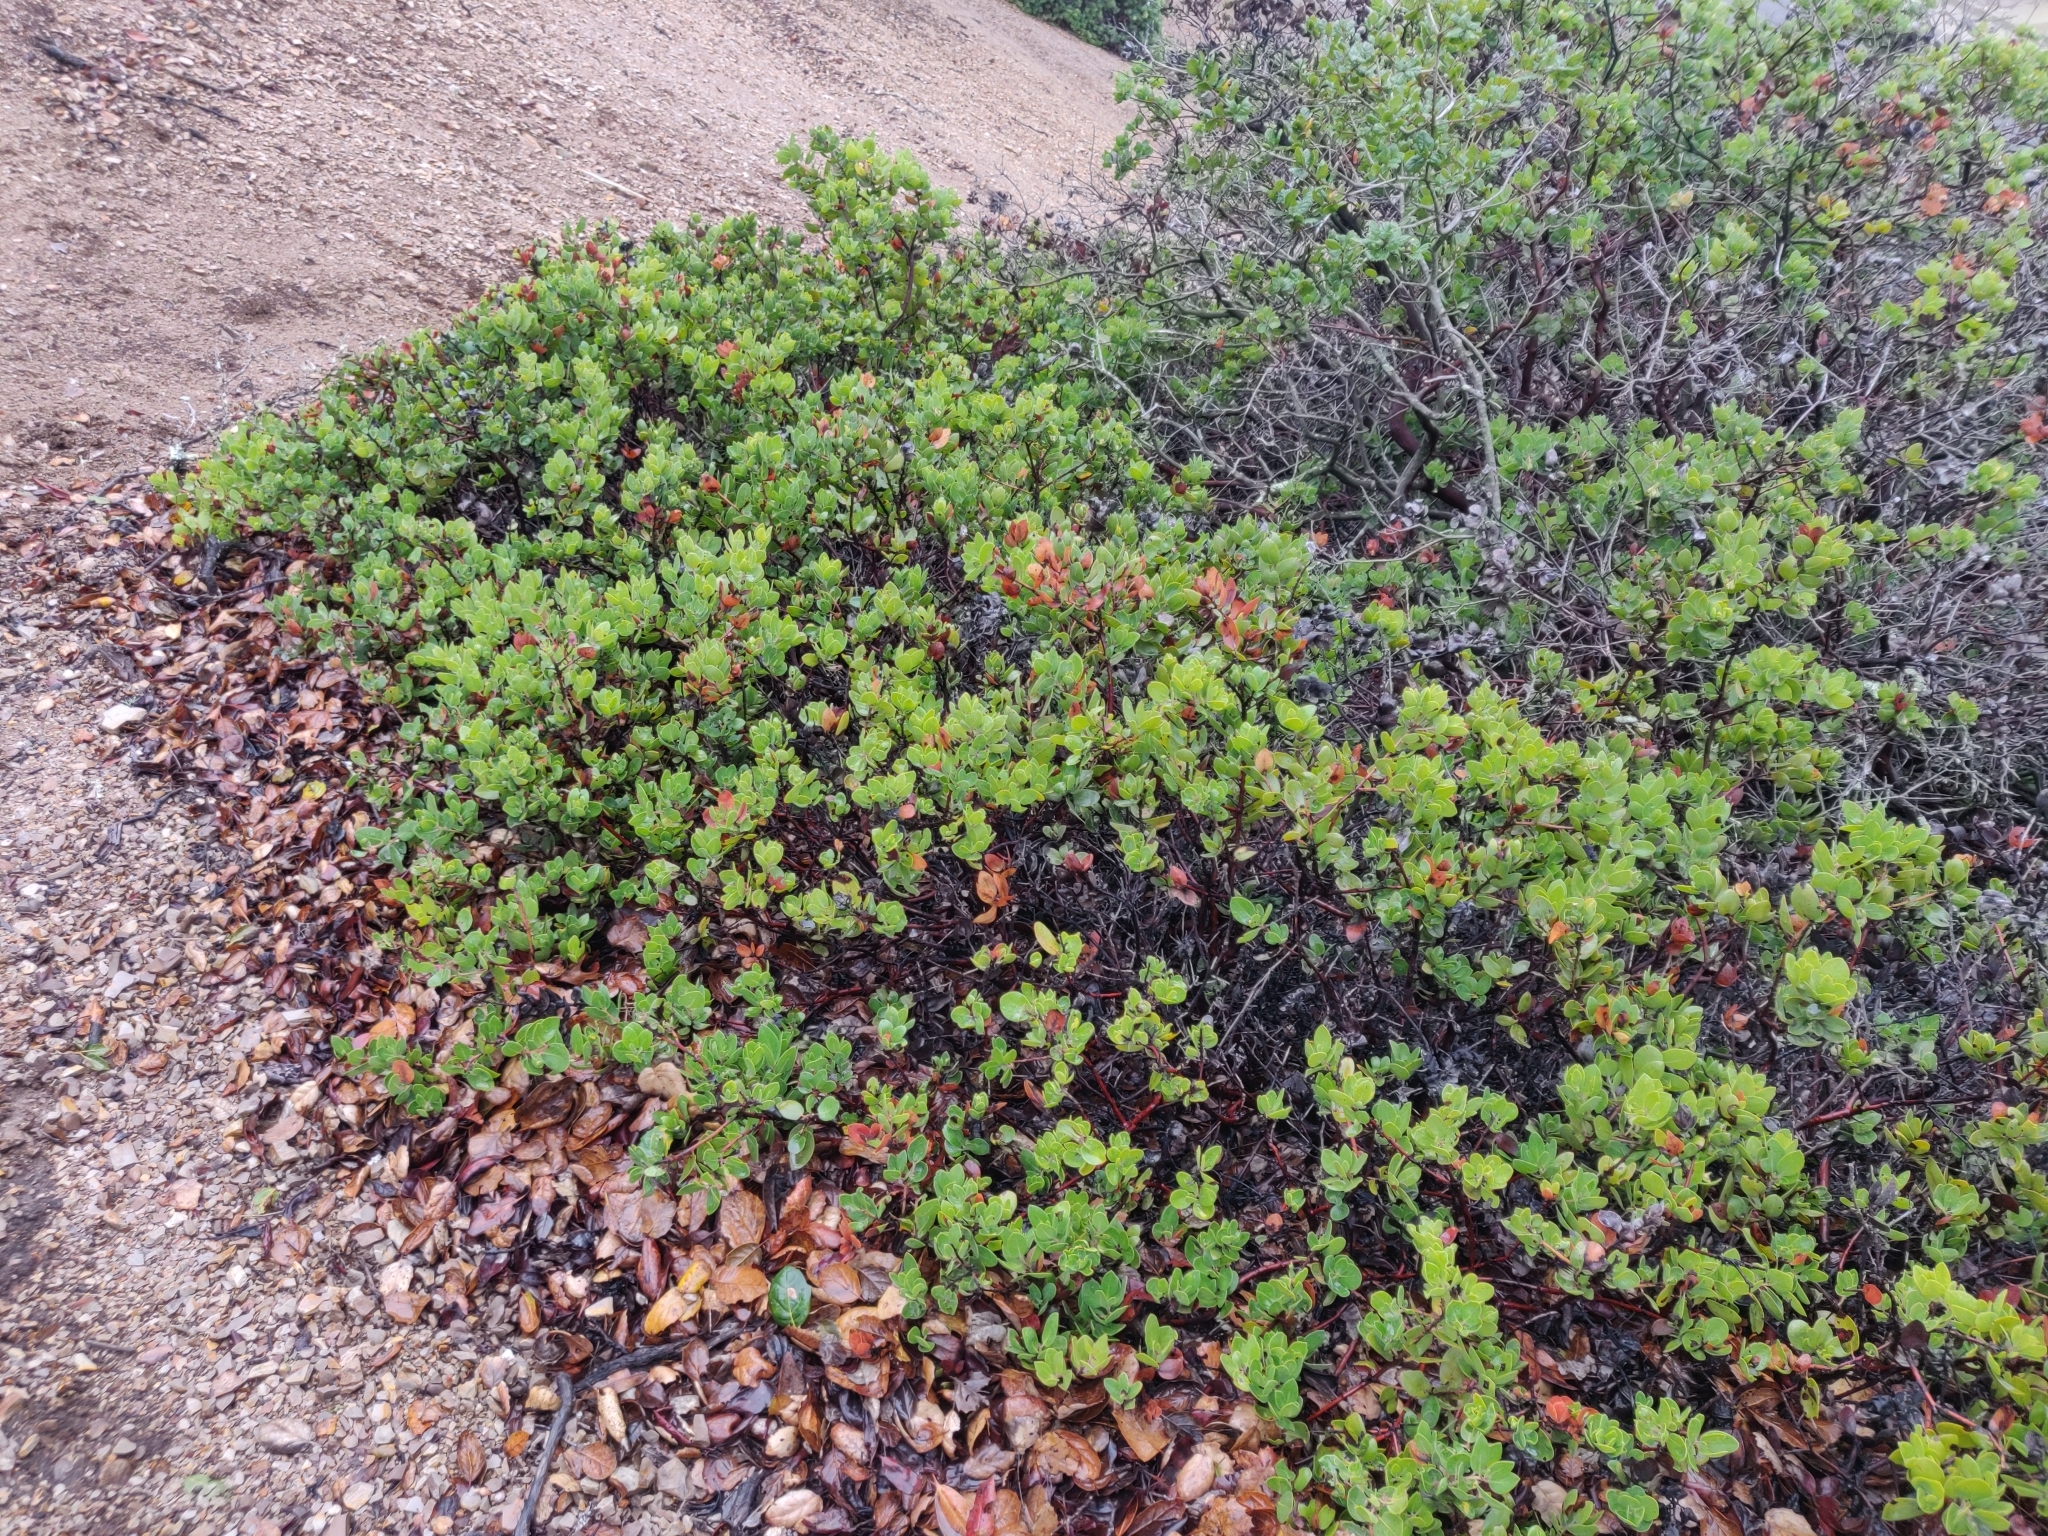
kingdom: Plantae
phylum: Tracheophyta
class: Magnoliopsida
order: Ericales
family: Ericaceae
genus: Arctostaphylos
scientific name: Arctostaphylos crustacea
